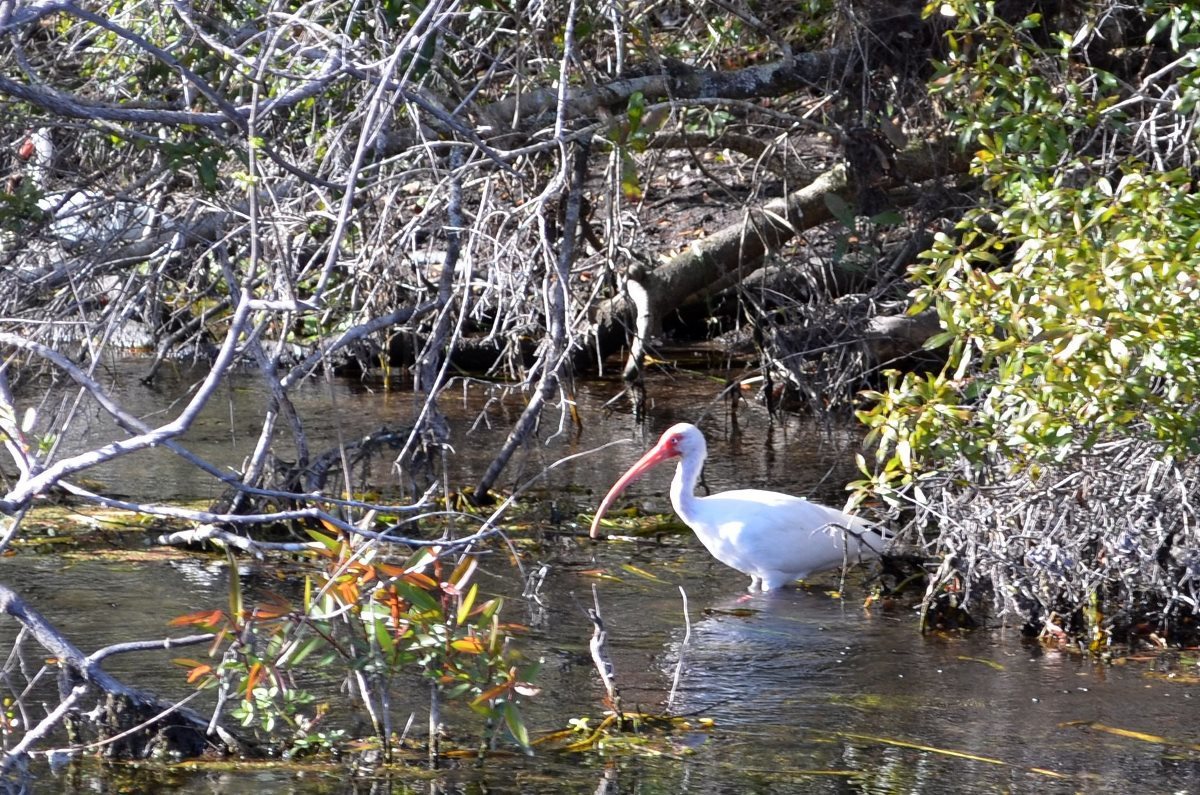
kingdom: Animalia
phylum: Chordata
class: Aves
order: Pelecaniformes
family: Threskiornithidae
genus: Eudocimus
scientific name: Eudocimus albus
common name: White ibis
